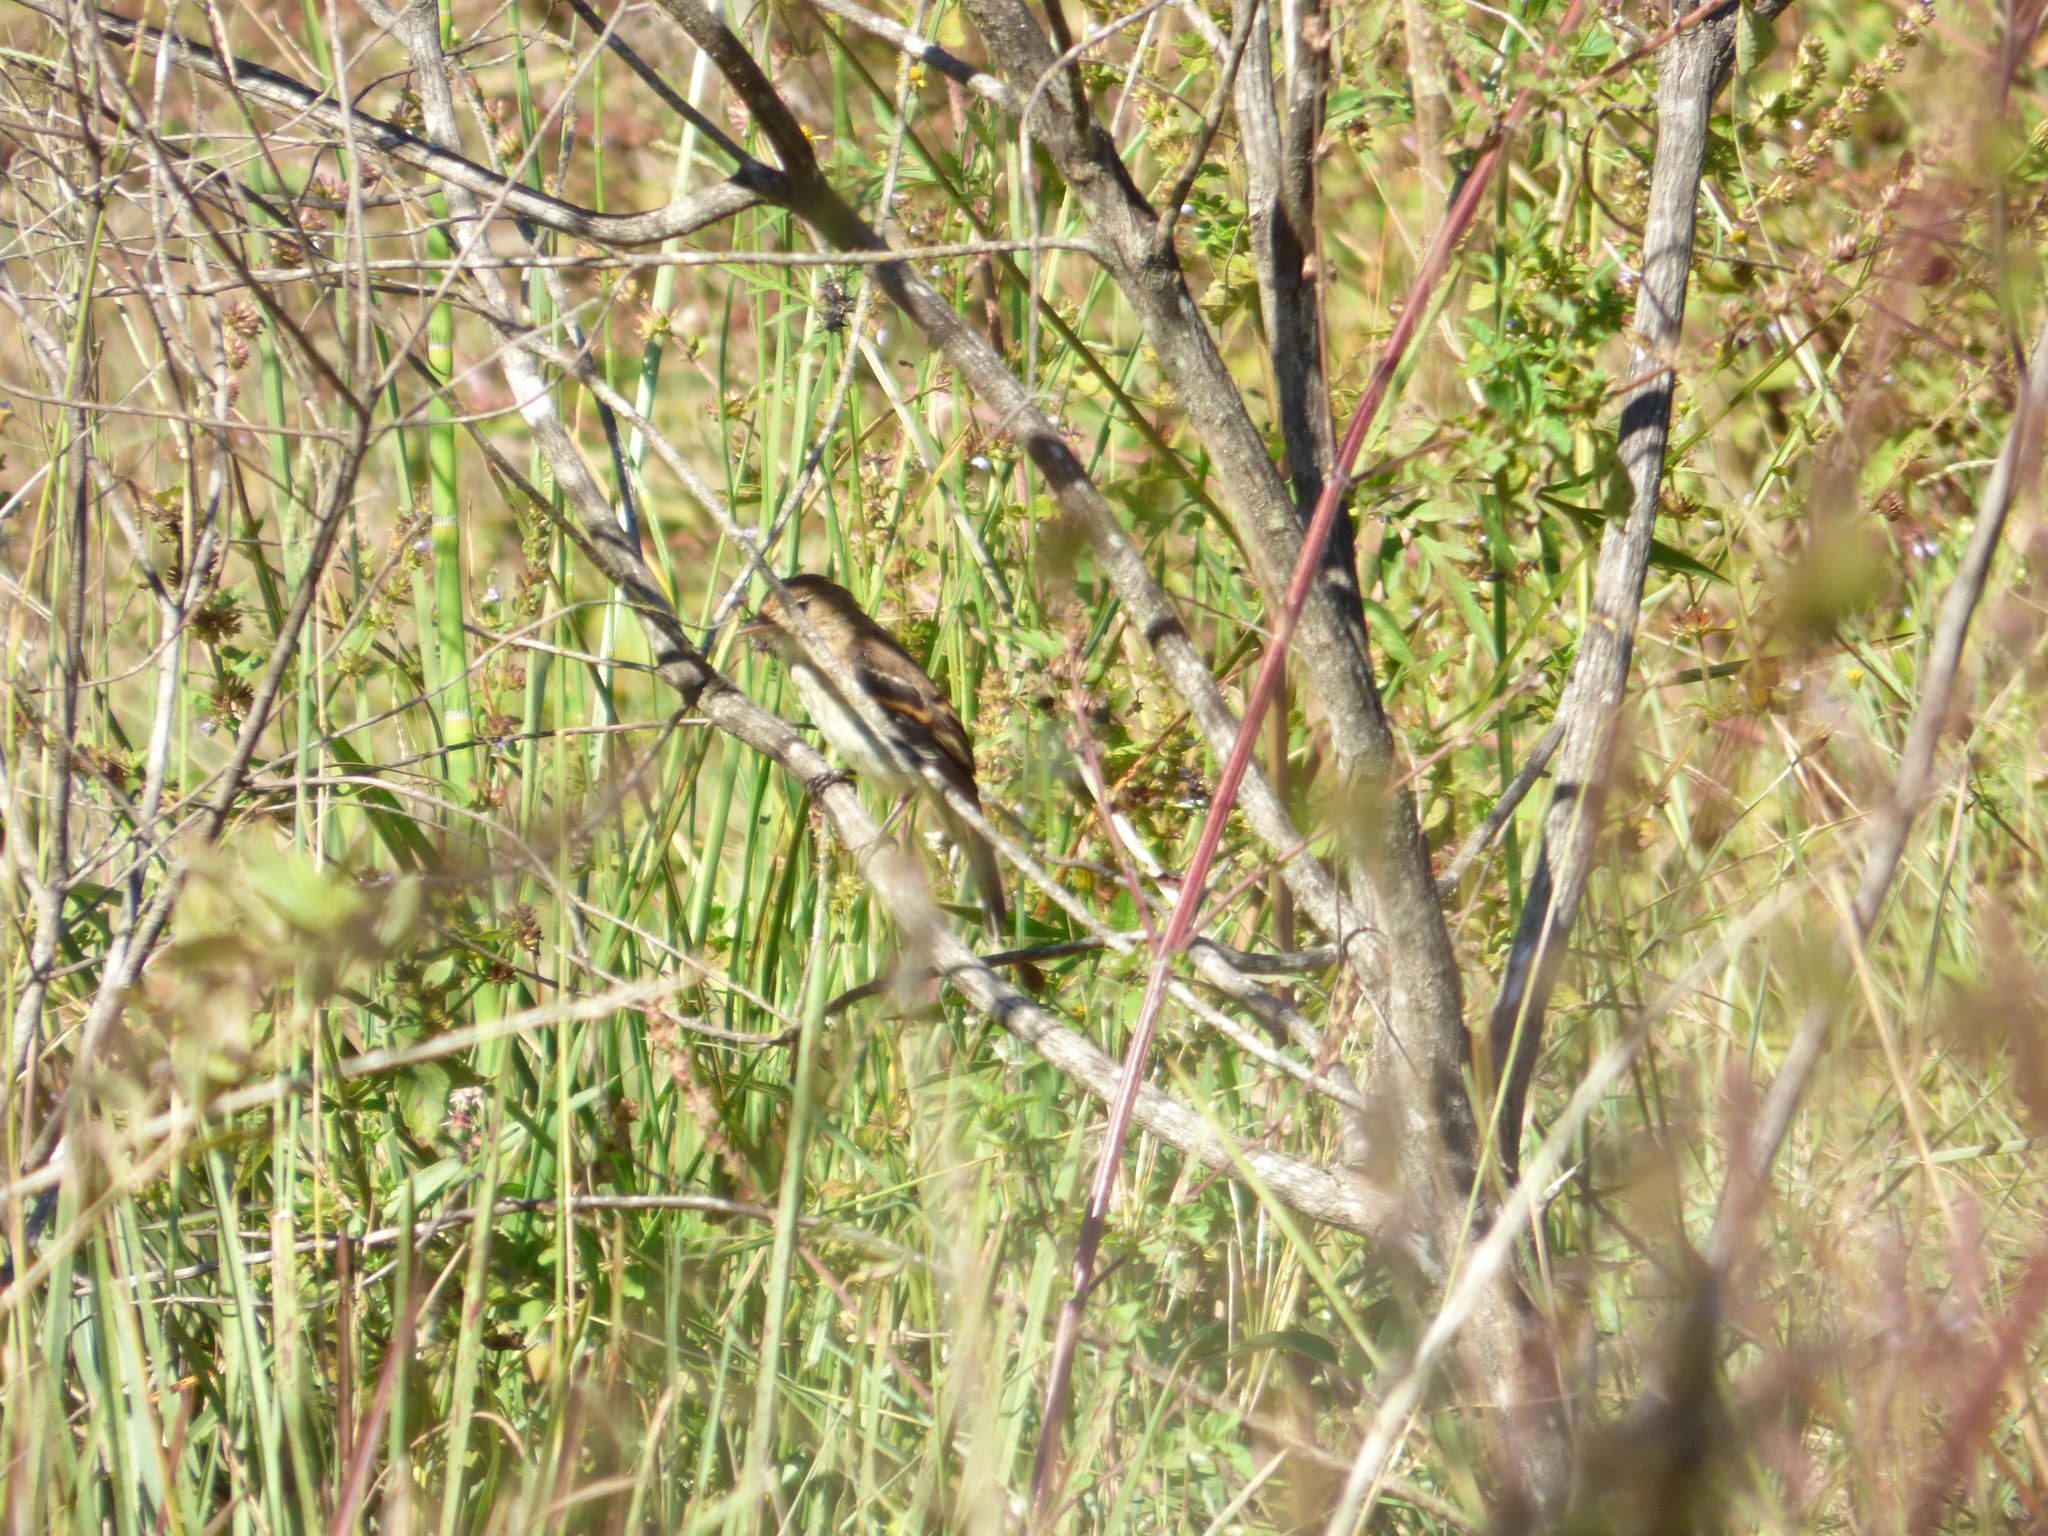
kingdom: Animalia
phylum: Chordata
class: Aves
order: Passeriformes
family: Tyrannidae
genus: Myiophobus
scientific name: Myiophobus fasciatus
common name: Bran-colored flycatcher
